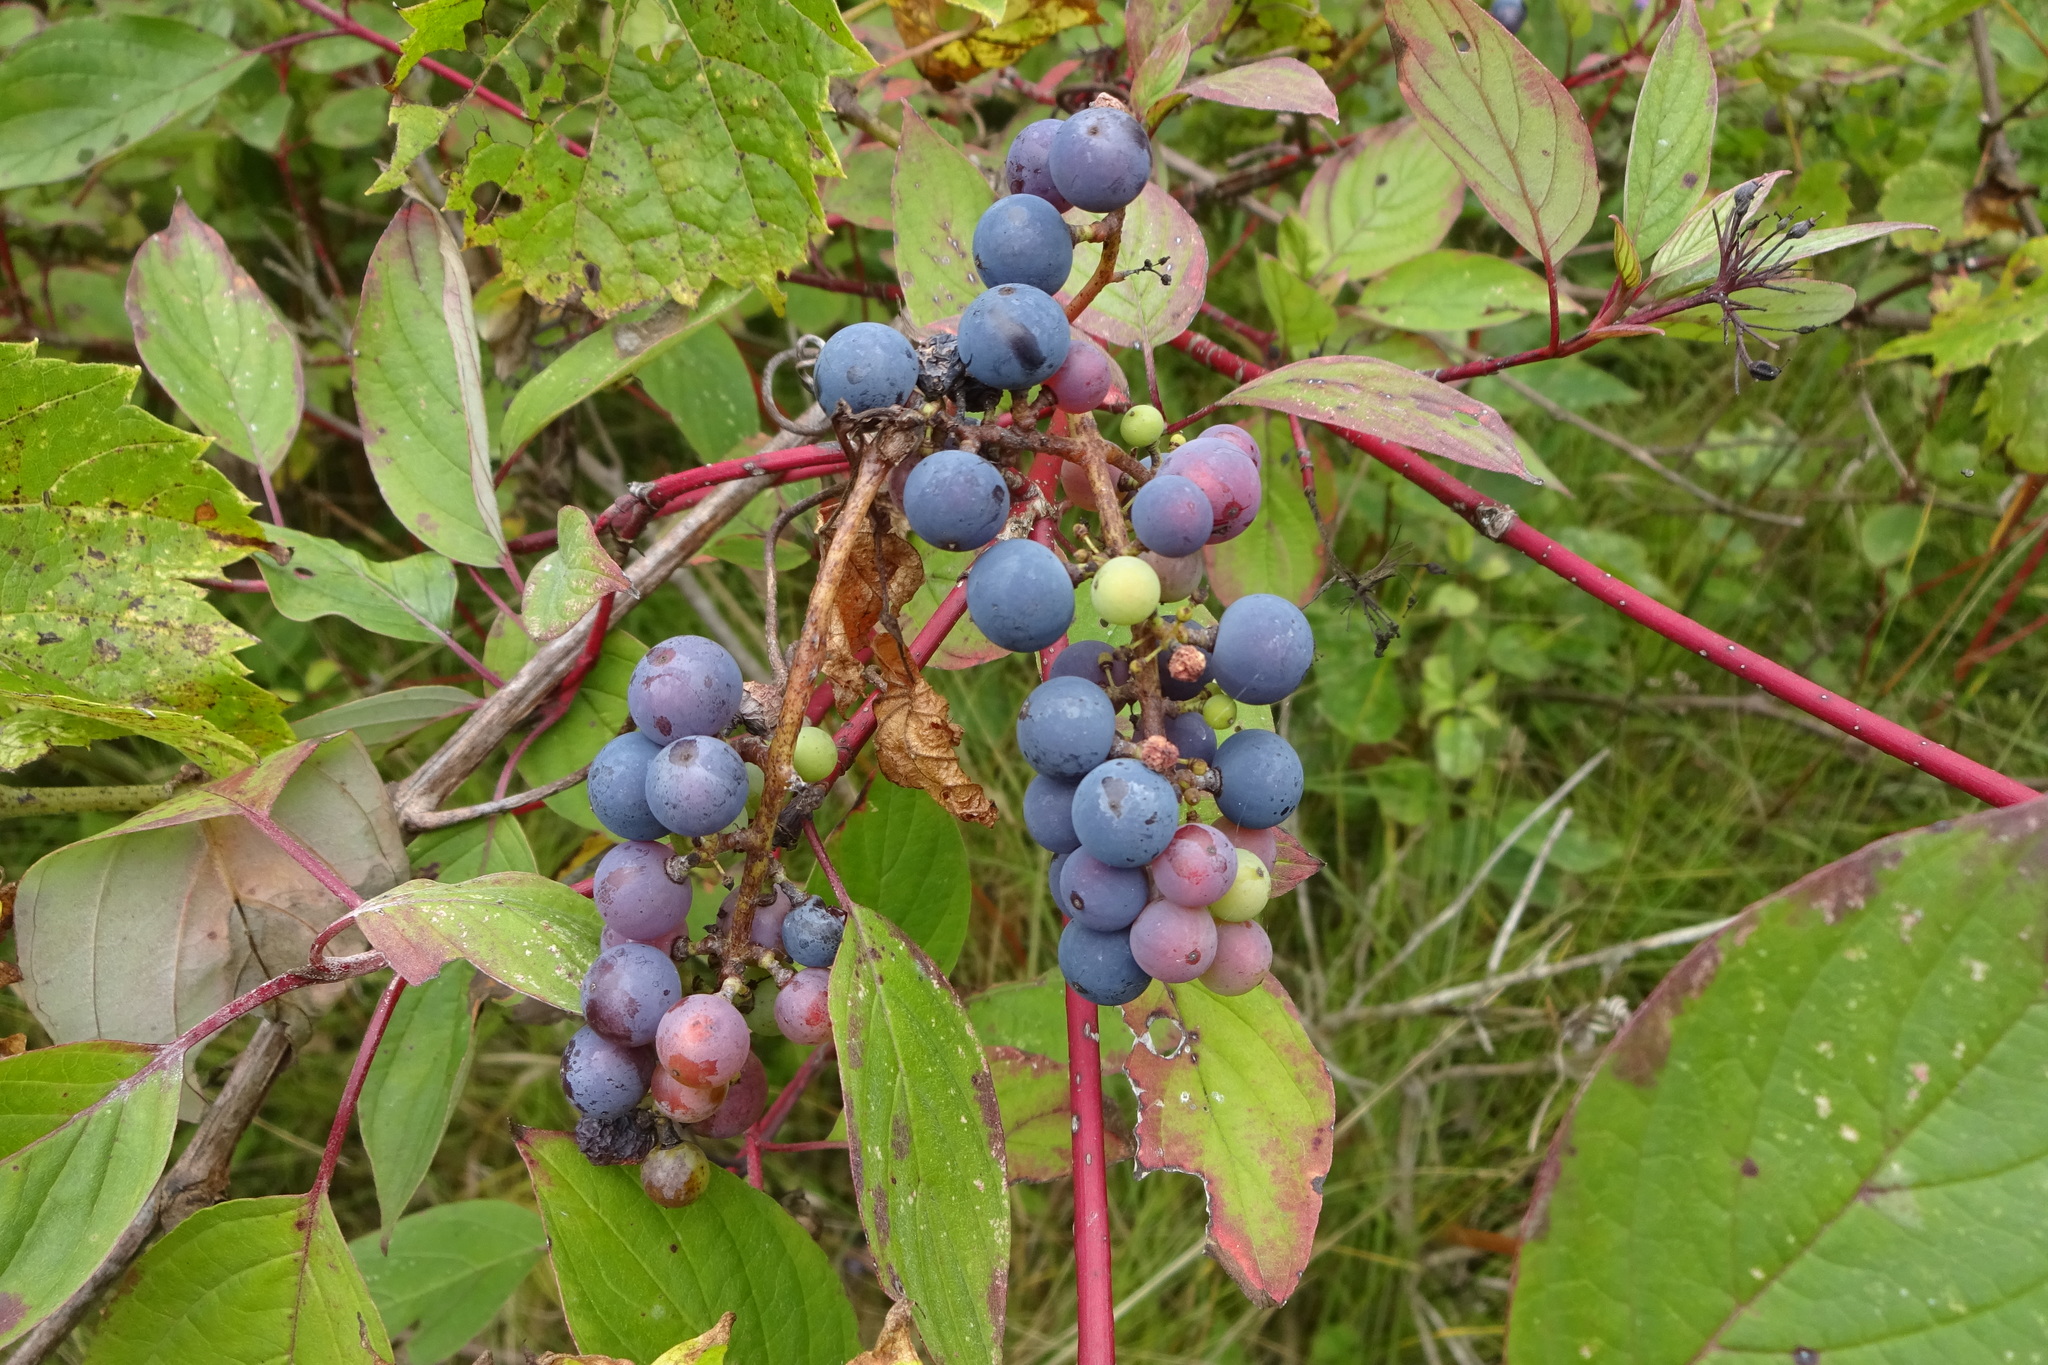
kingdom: Plantae
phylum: Tracheophyta
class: Magnoliopsida
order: Vitales
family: Vitaceae
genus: Vitis
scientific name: Vitis riparia
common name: Frost grape
